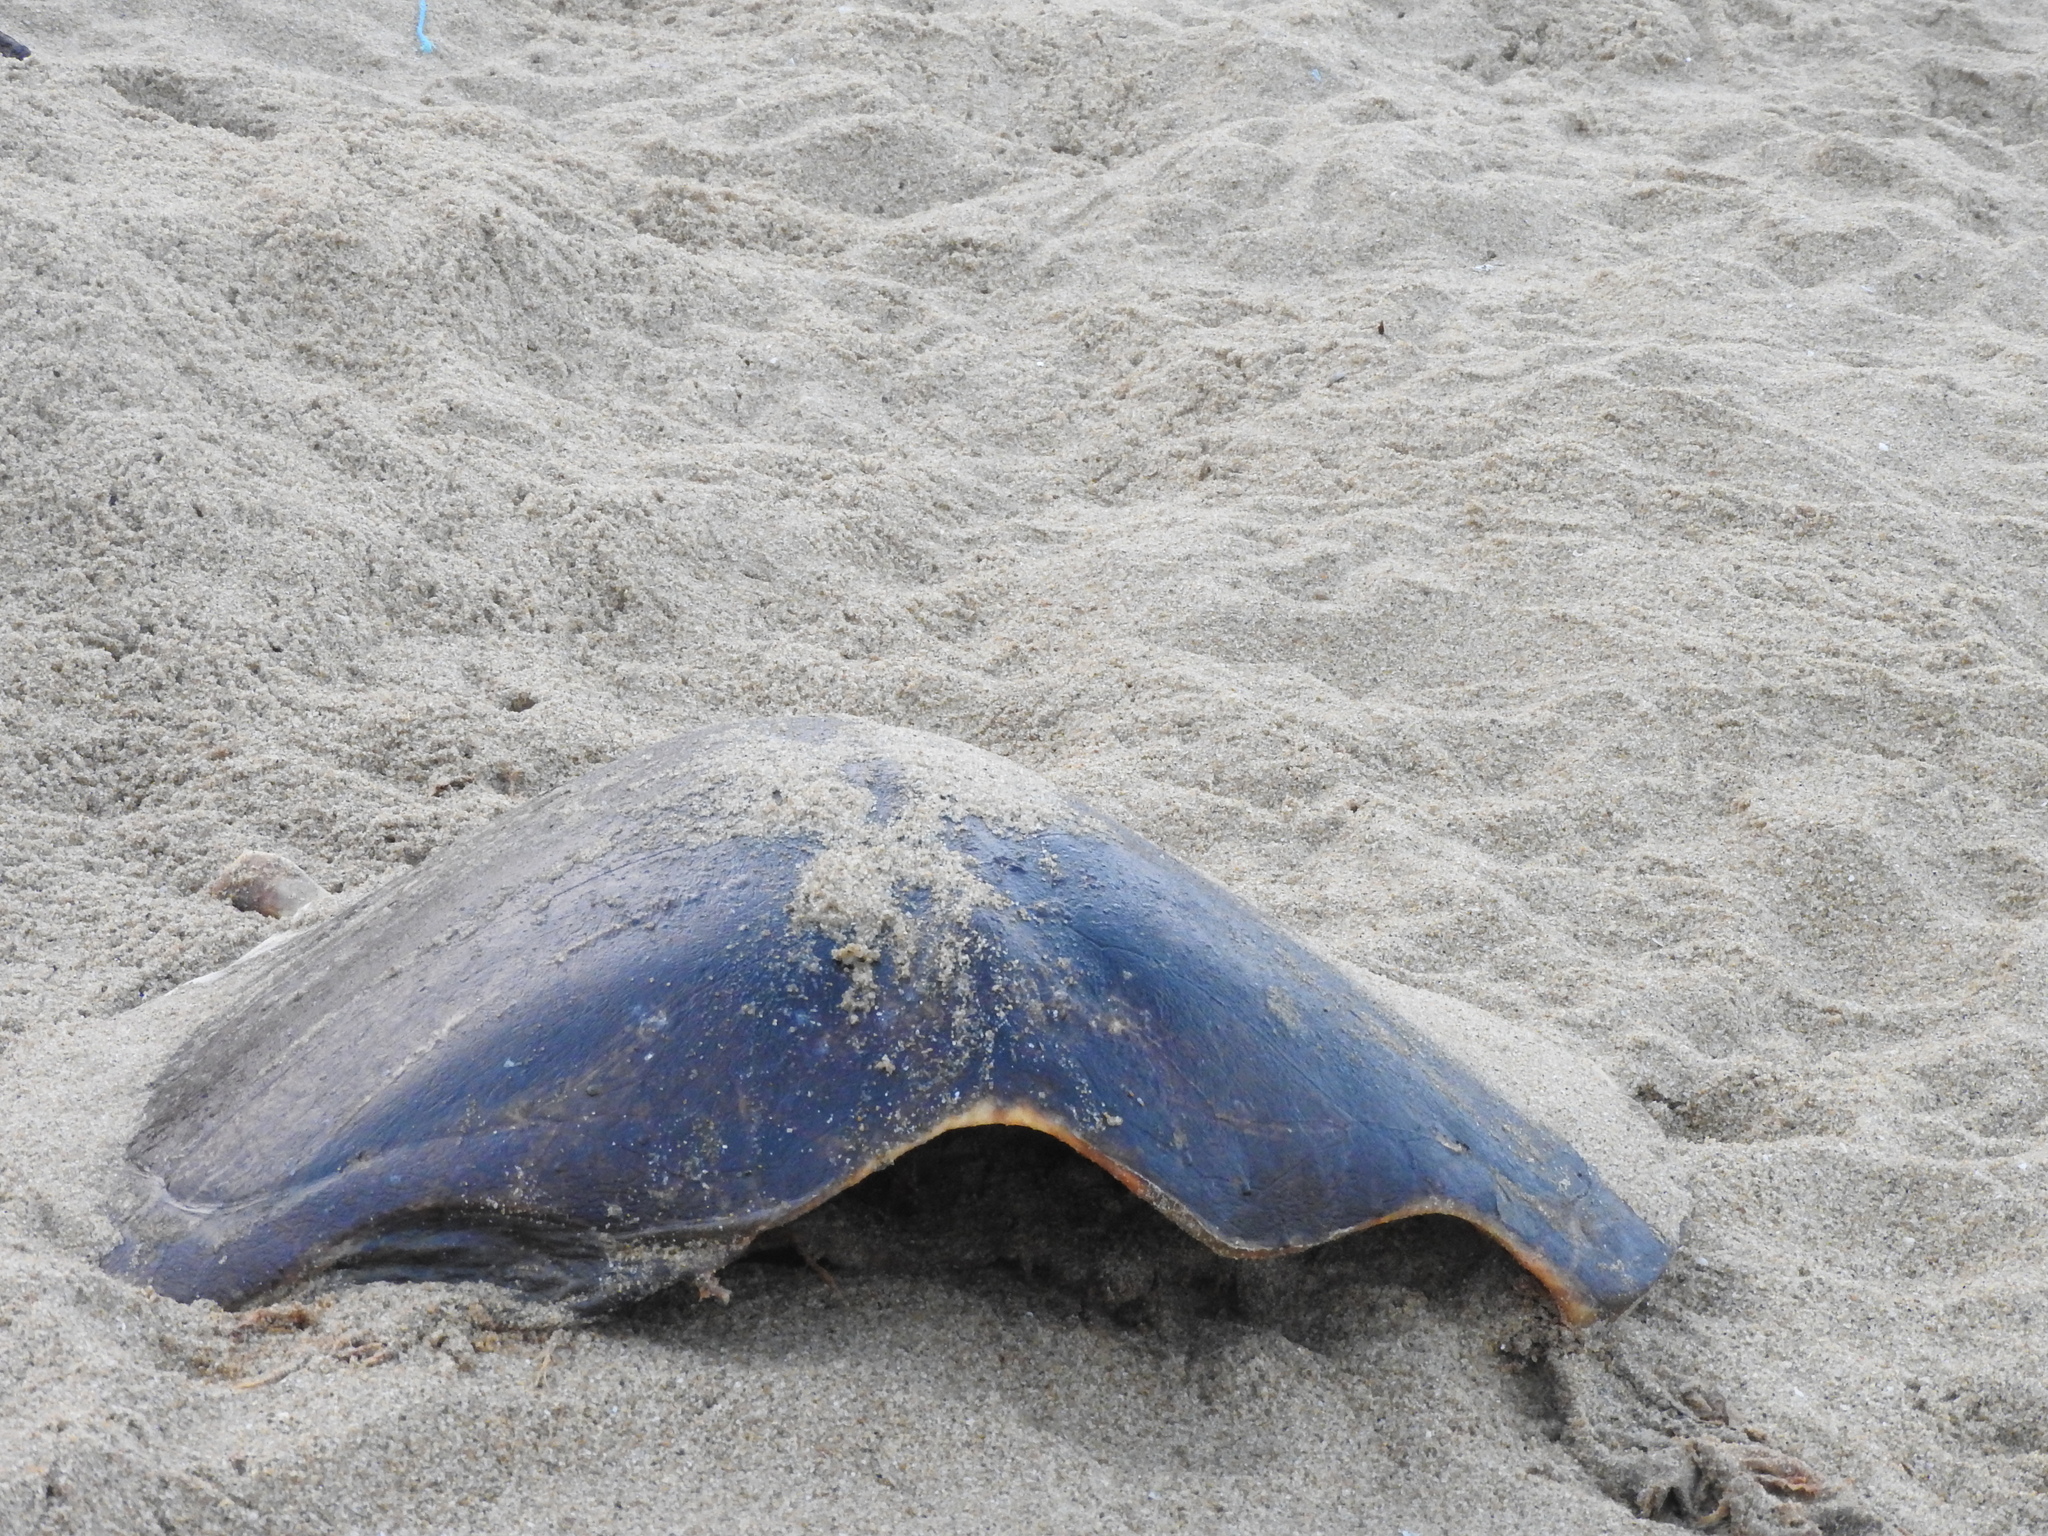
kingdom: Animalia
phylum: Chordata
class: Testudines
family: Cheloniidae
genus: Lepidochelys
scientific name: Lepidochelys olivacea
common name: Olive ridley
